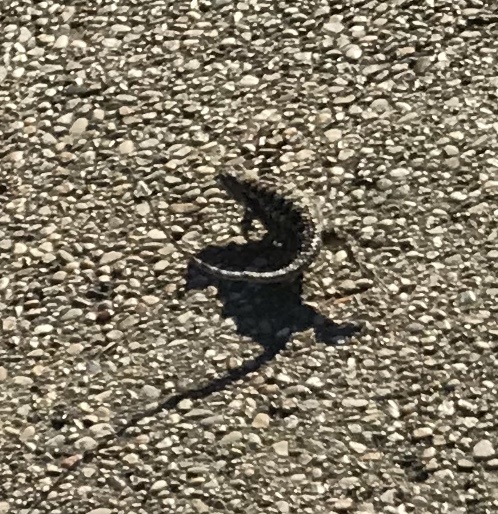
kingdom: Animalia
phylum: Chordata
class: Squamata
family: Phrynosomatidae
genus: Sceloporus
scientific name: Sceloporus olivaceus
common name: Texas spiny lizard
